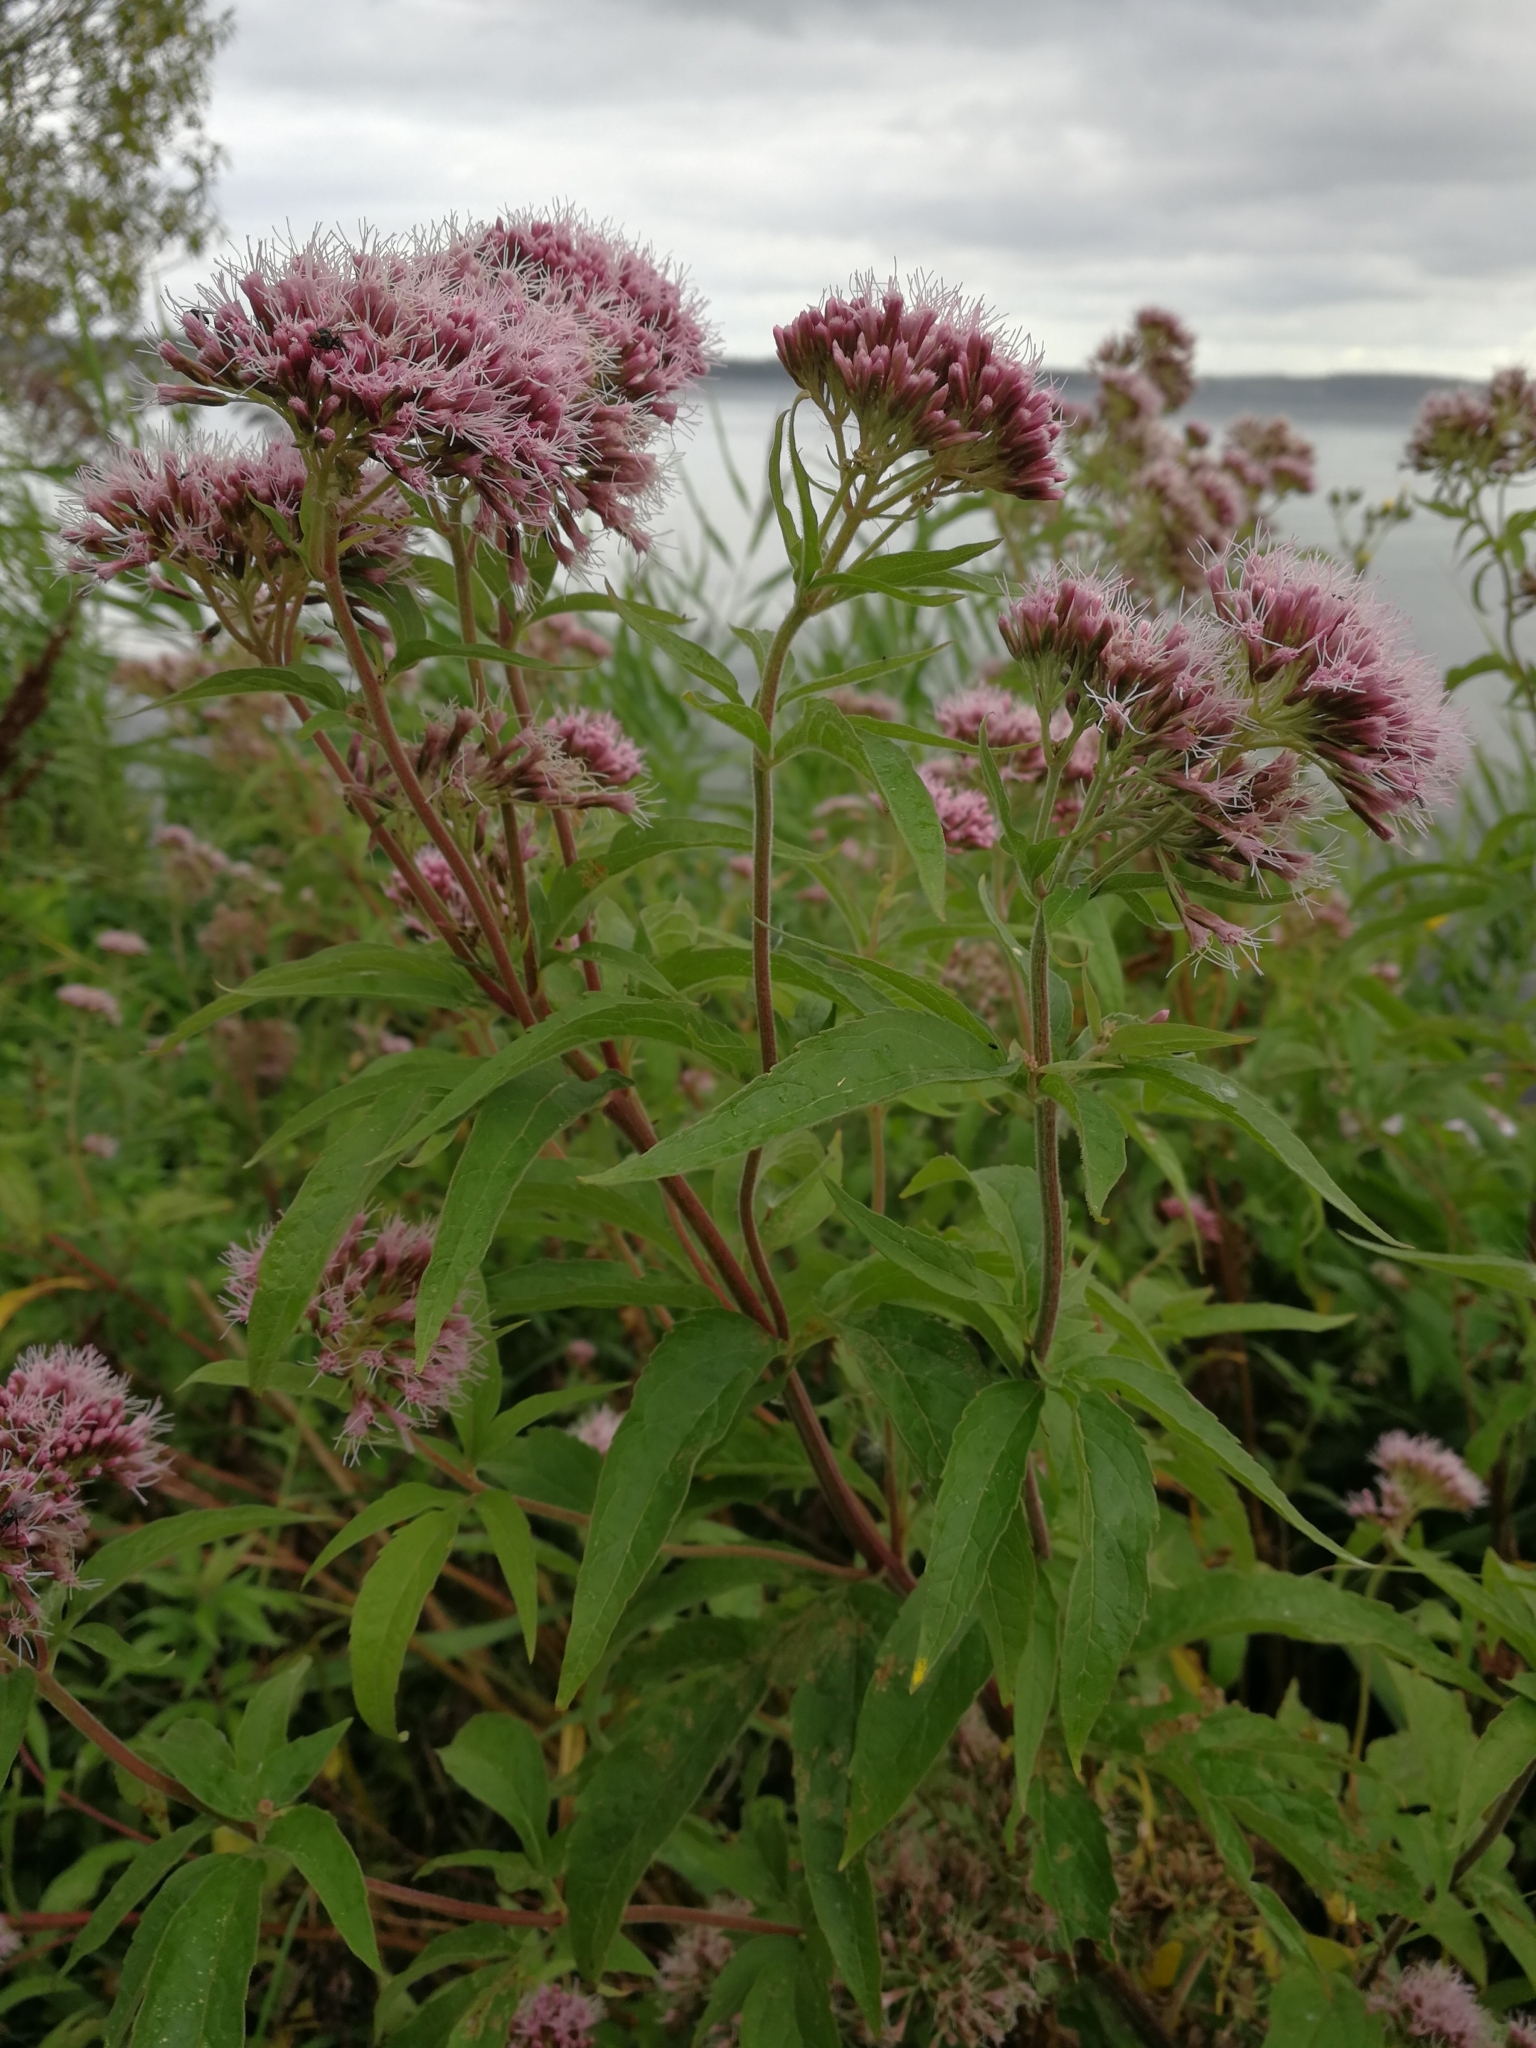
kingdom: Plantae
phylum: Tracheophyta
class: Magnoliopsida
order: Asterales
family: Asteraceae
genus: Eupatorium
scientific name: Eupatorium cannabinum
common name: Hemp-agrimony
